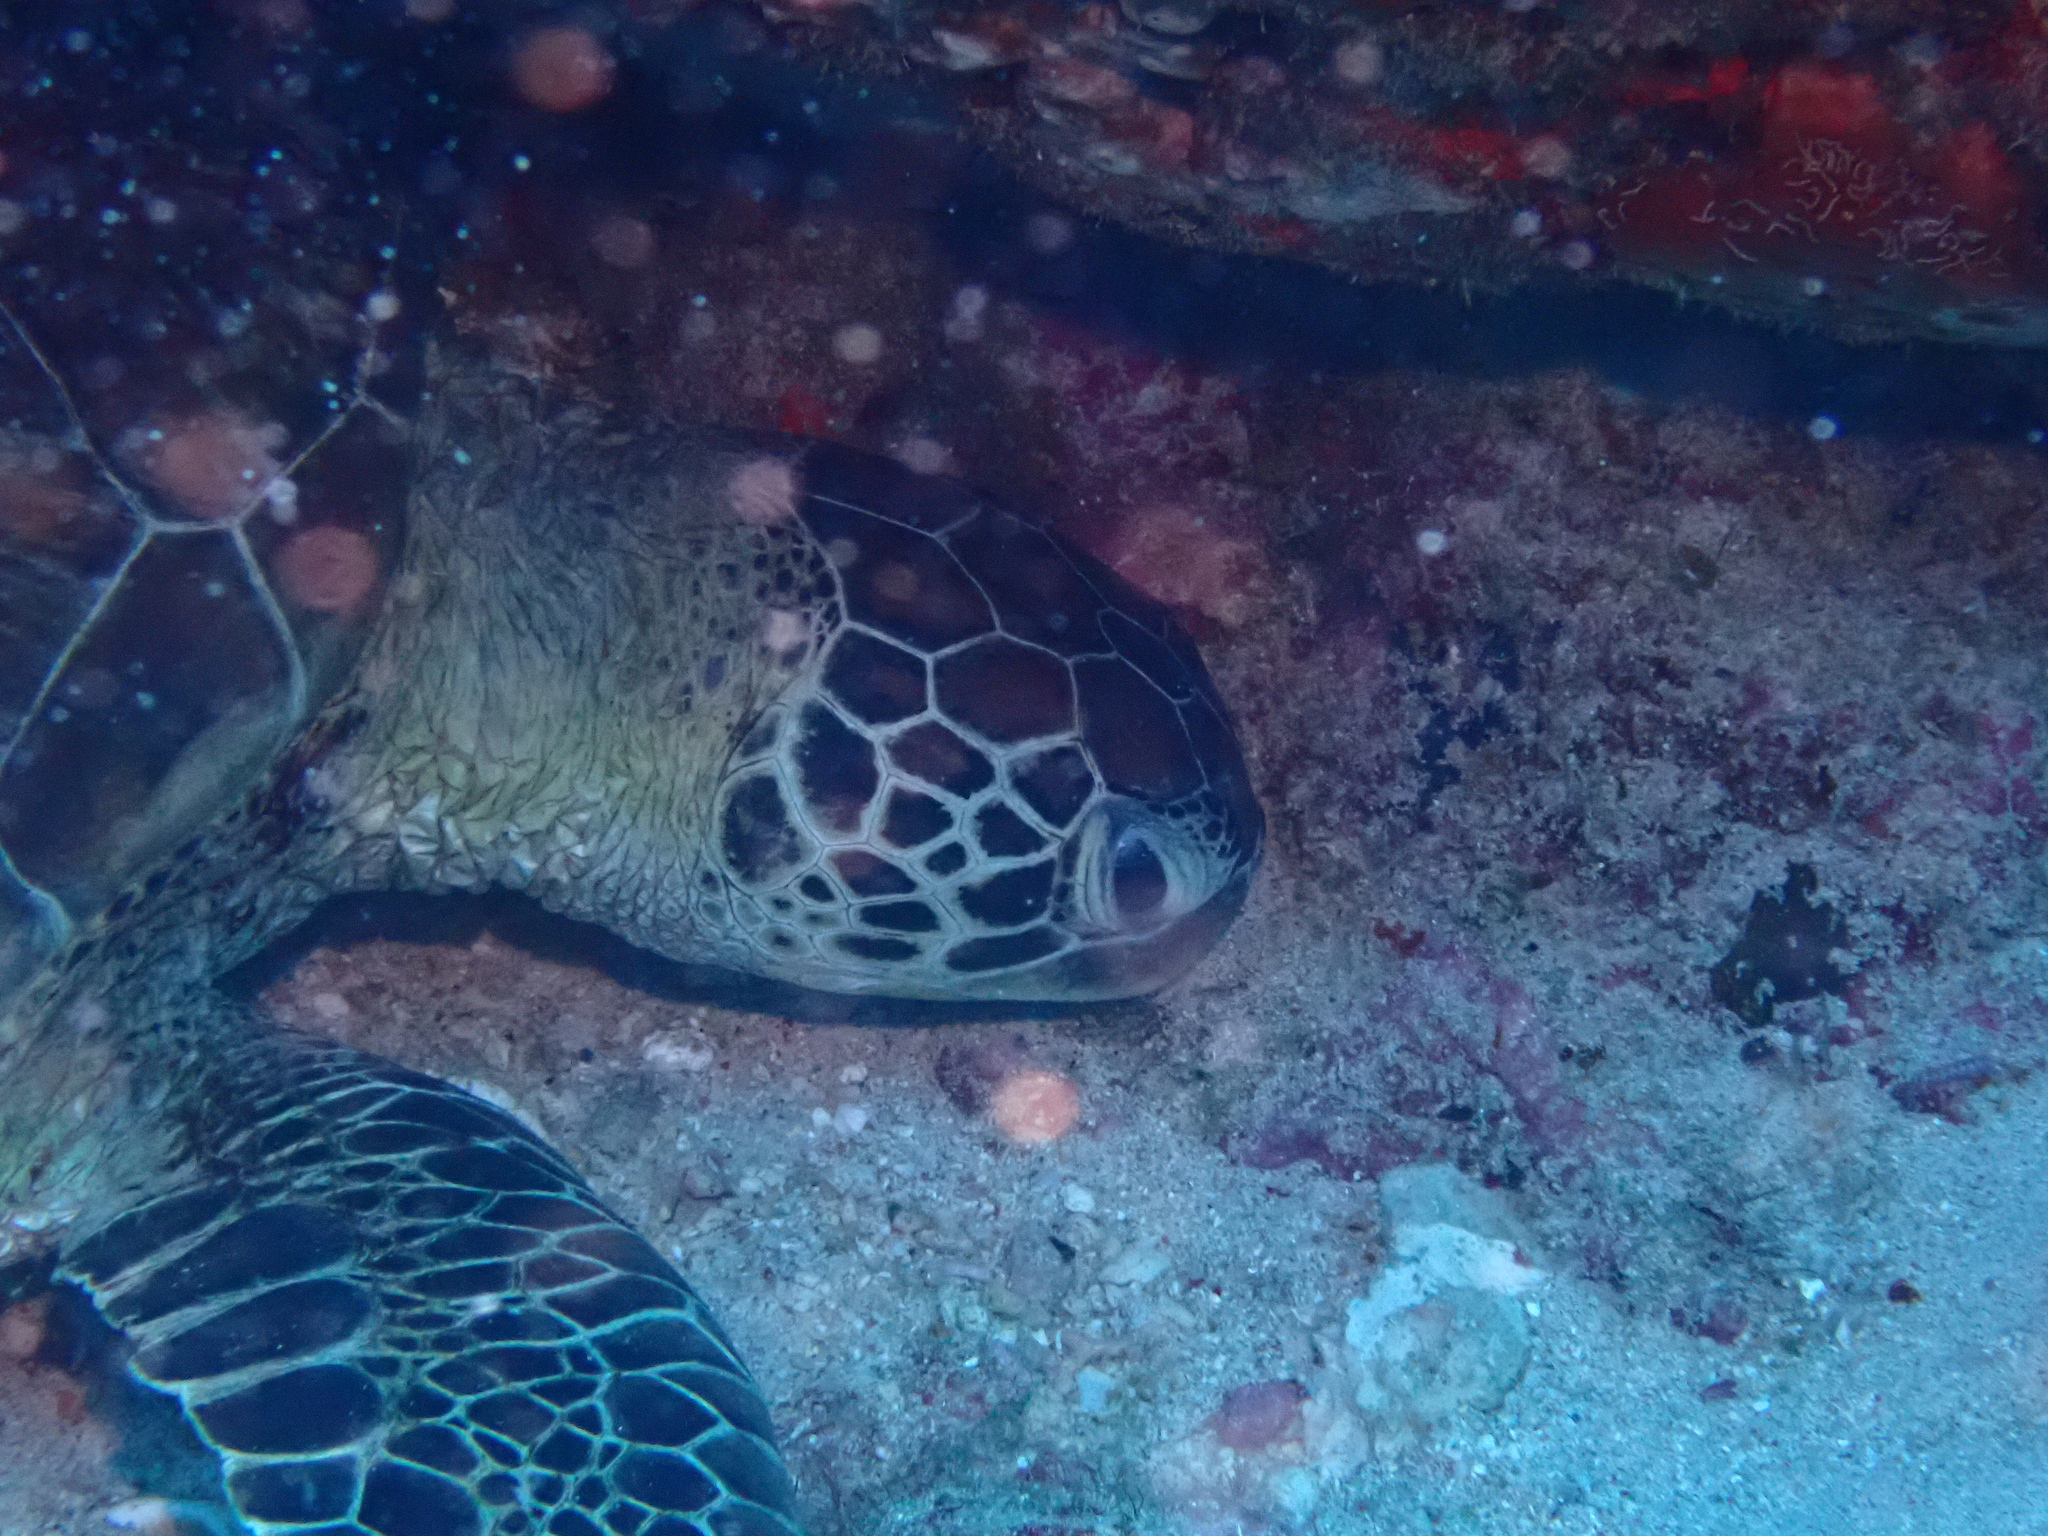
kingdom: Animalia
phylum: Chordata
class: Testudines
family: Cheloniidae
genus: Chelonia
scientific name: Chelonia mydas
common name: Green turtle
